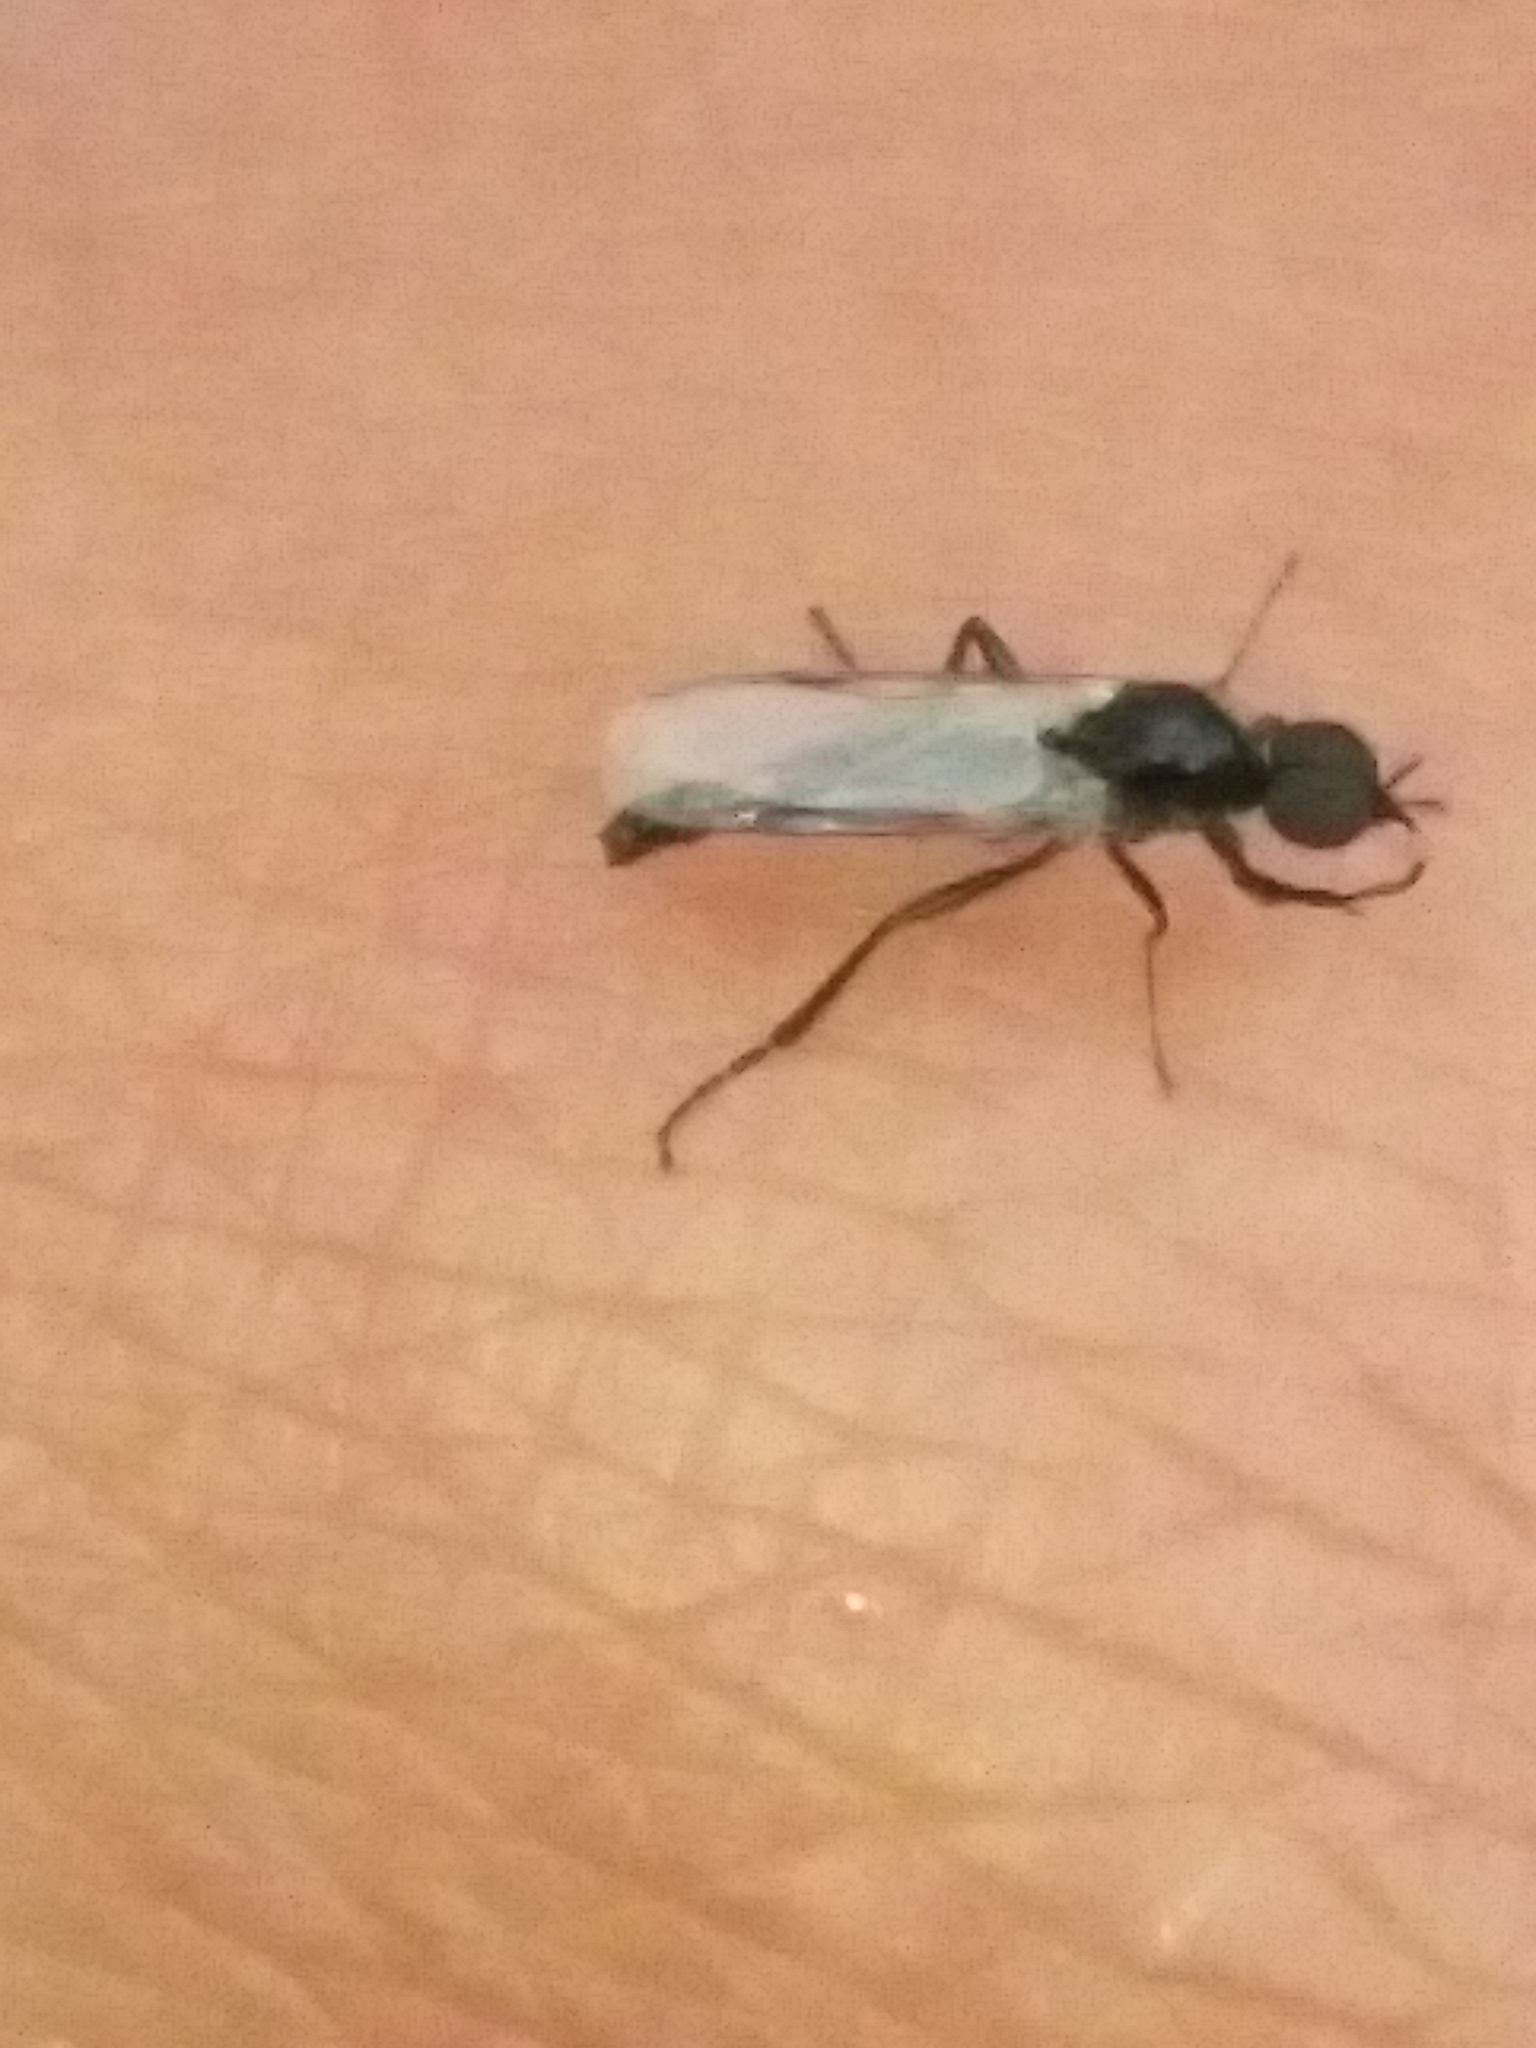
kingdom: Animalia
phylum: Arthropoda
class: Insecta
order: Diptera
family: Bibionidae
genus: Bibiodes
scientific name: Bibiodes halteralis
